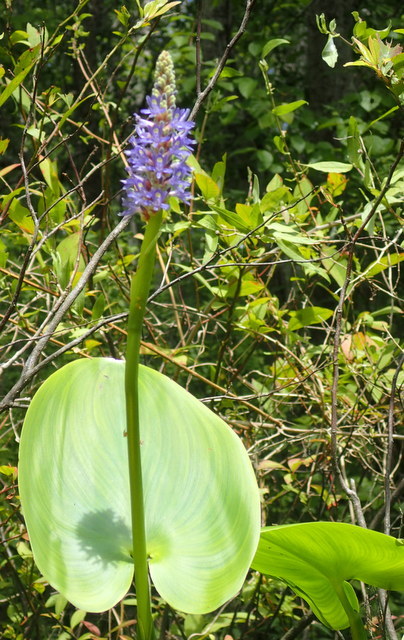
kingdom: Plantae
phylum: Tracheophyta
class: Liliopsida
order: Commelinales
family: Pontederiaceae
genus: Pontederia
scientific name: Pontederia cordata
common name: Pickerelweed
